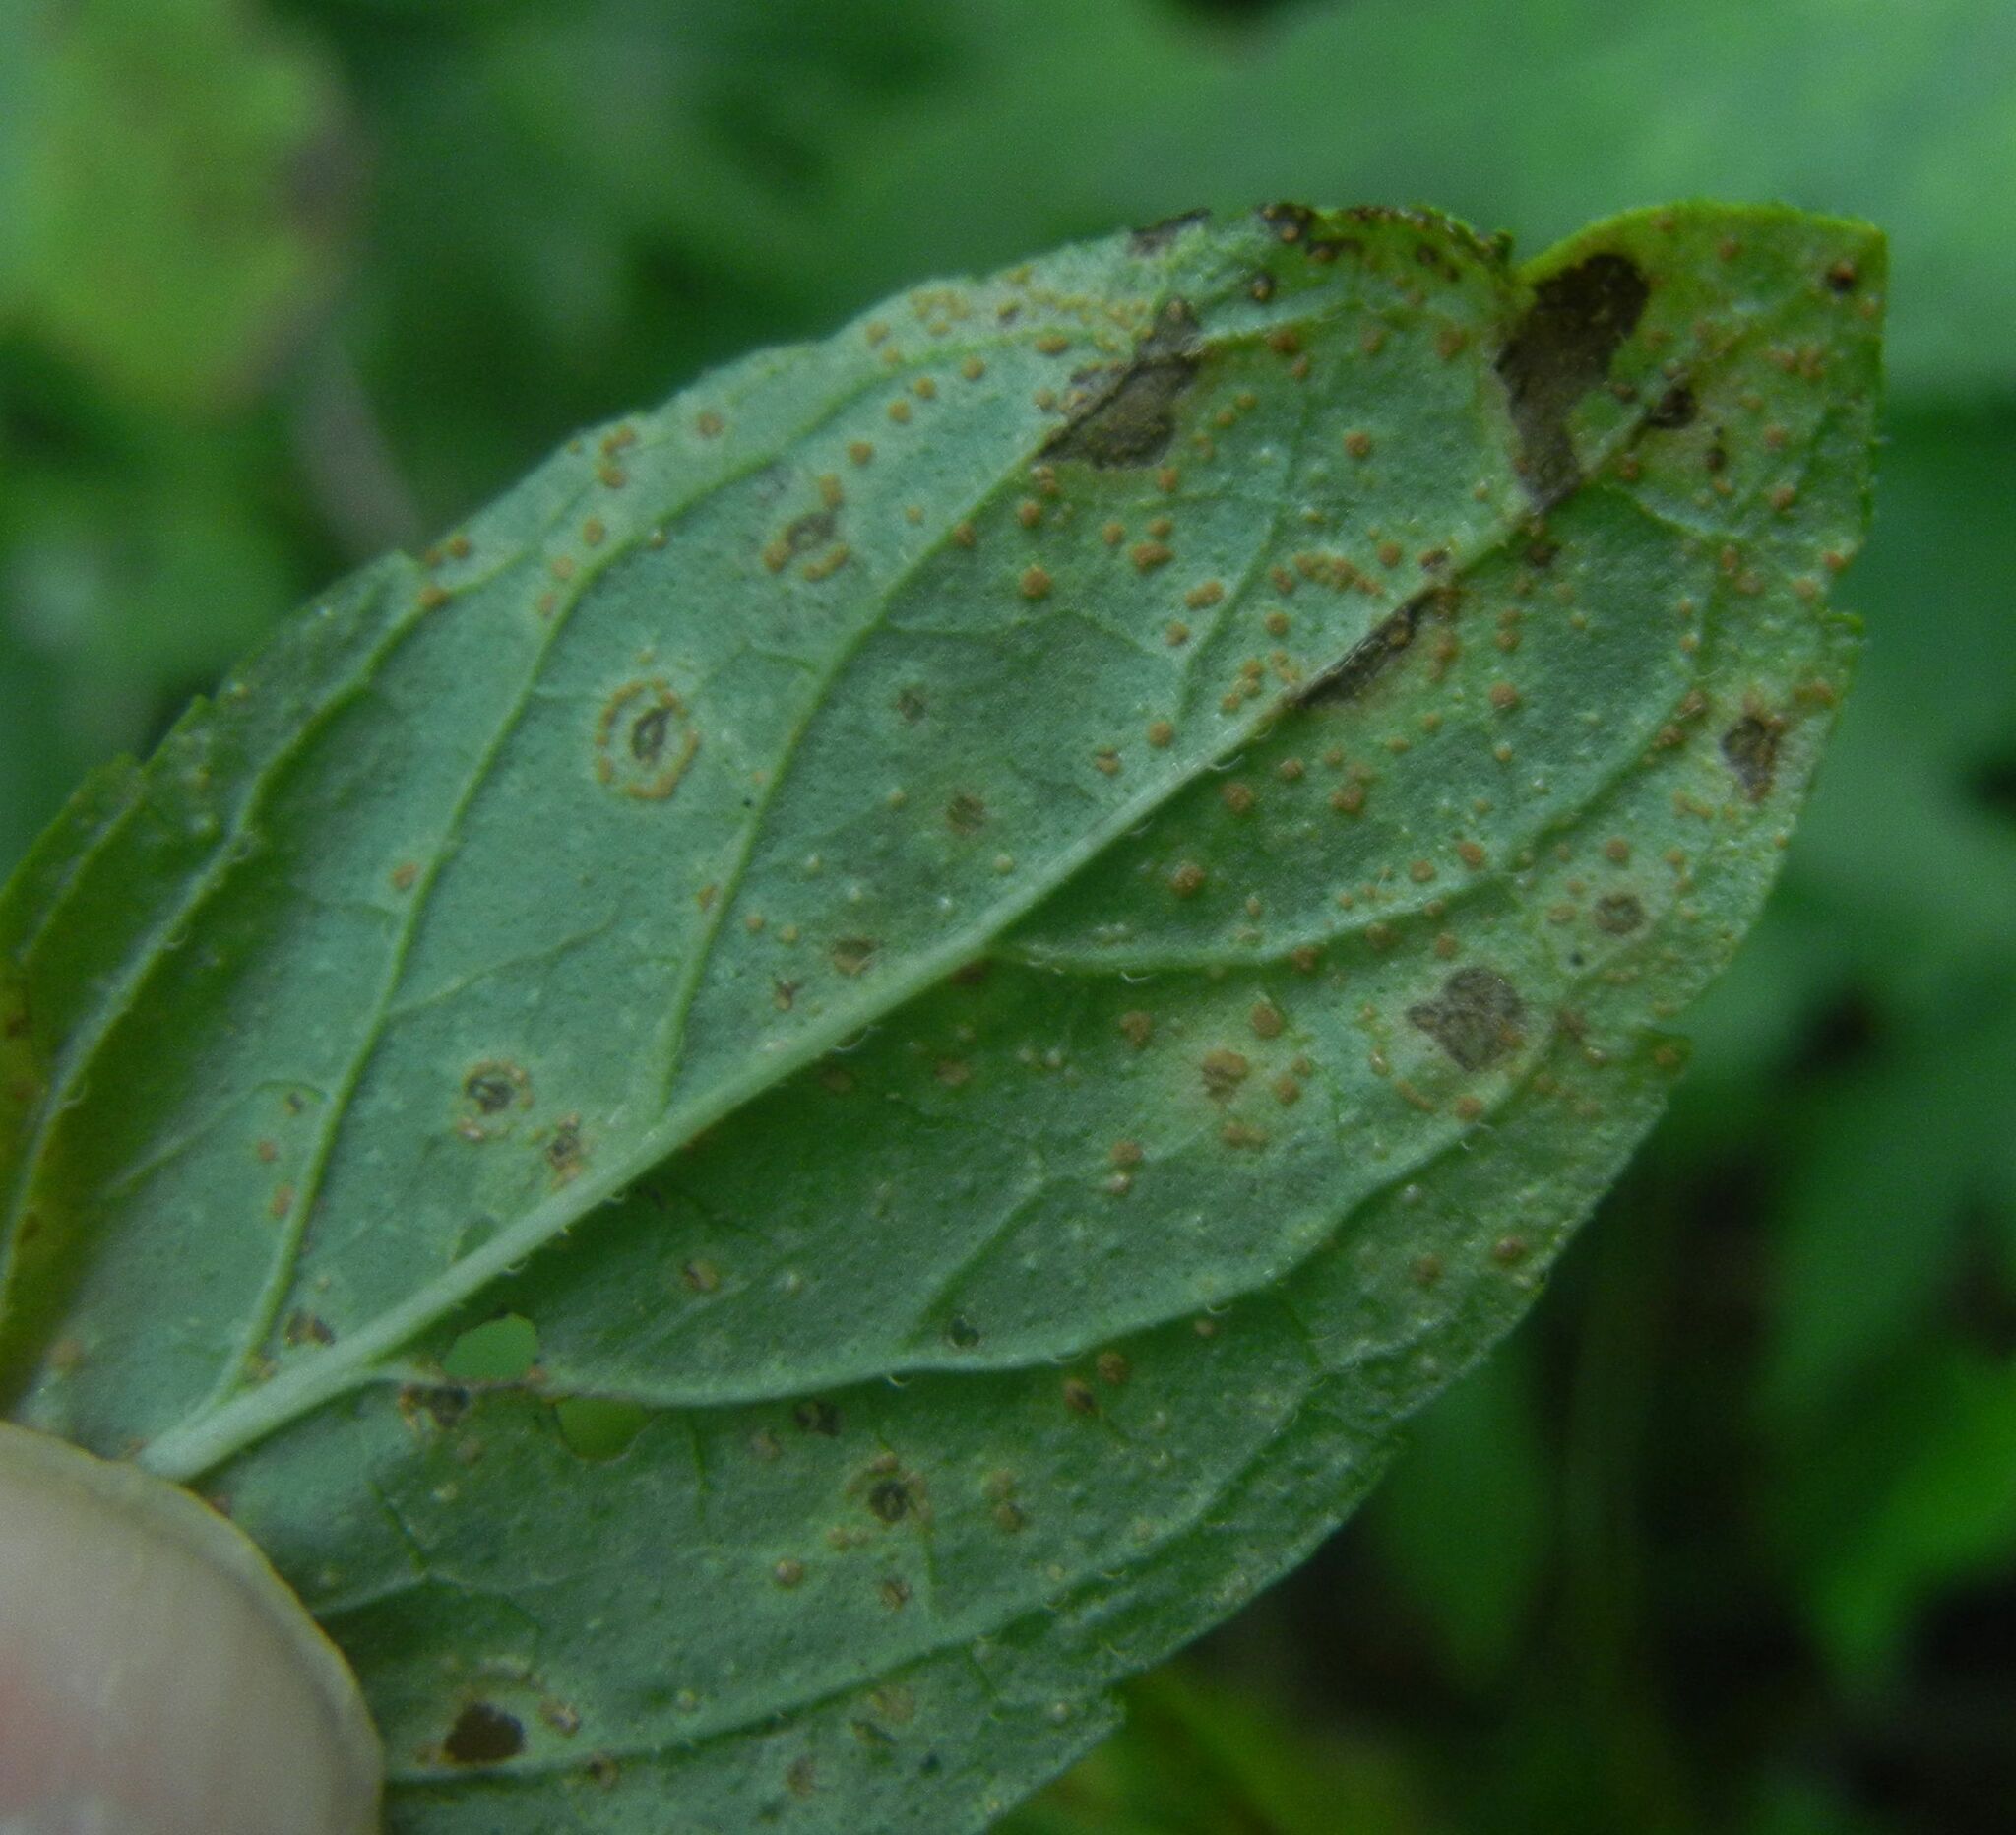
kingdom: Fungi
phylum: Basidiomycota
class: Pucciniomycetes
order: Pucciniales
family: Pucciniaceae
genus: Puccinia
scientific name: Puccinia menthae
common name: Mint rust
